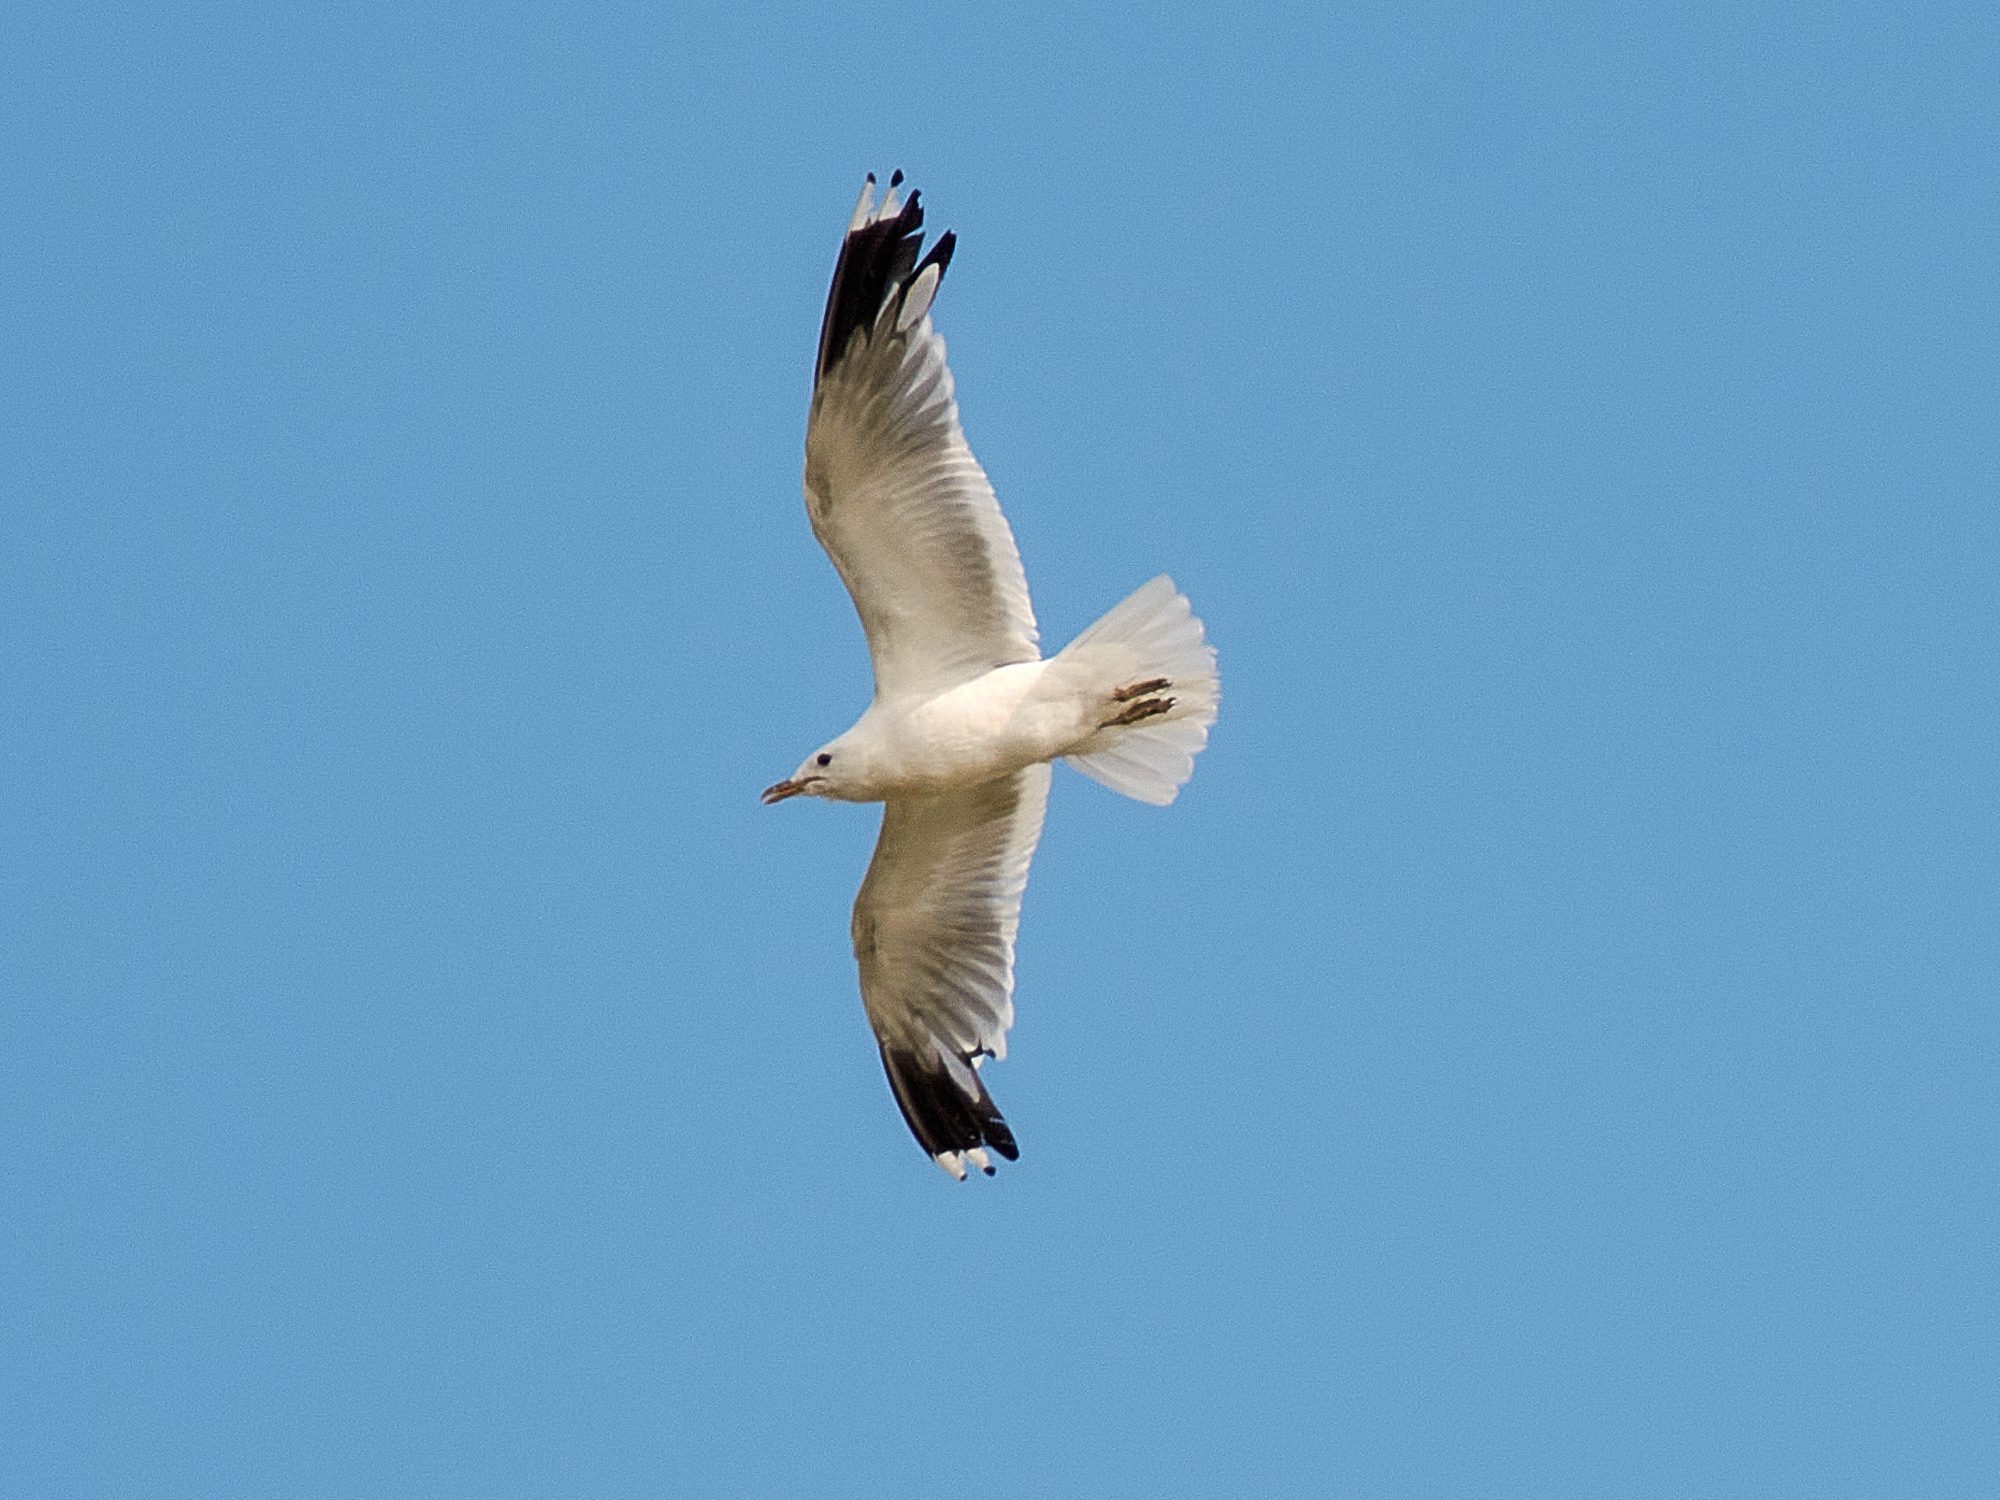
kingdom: Animalia
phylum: Chordata
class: Aves
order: Charadriiformes
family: Laridae
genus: Larus
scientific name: Larus canus
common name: Mew gull
